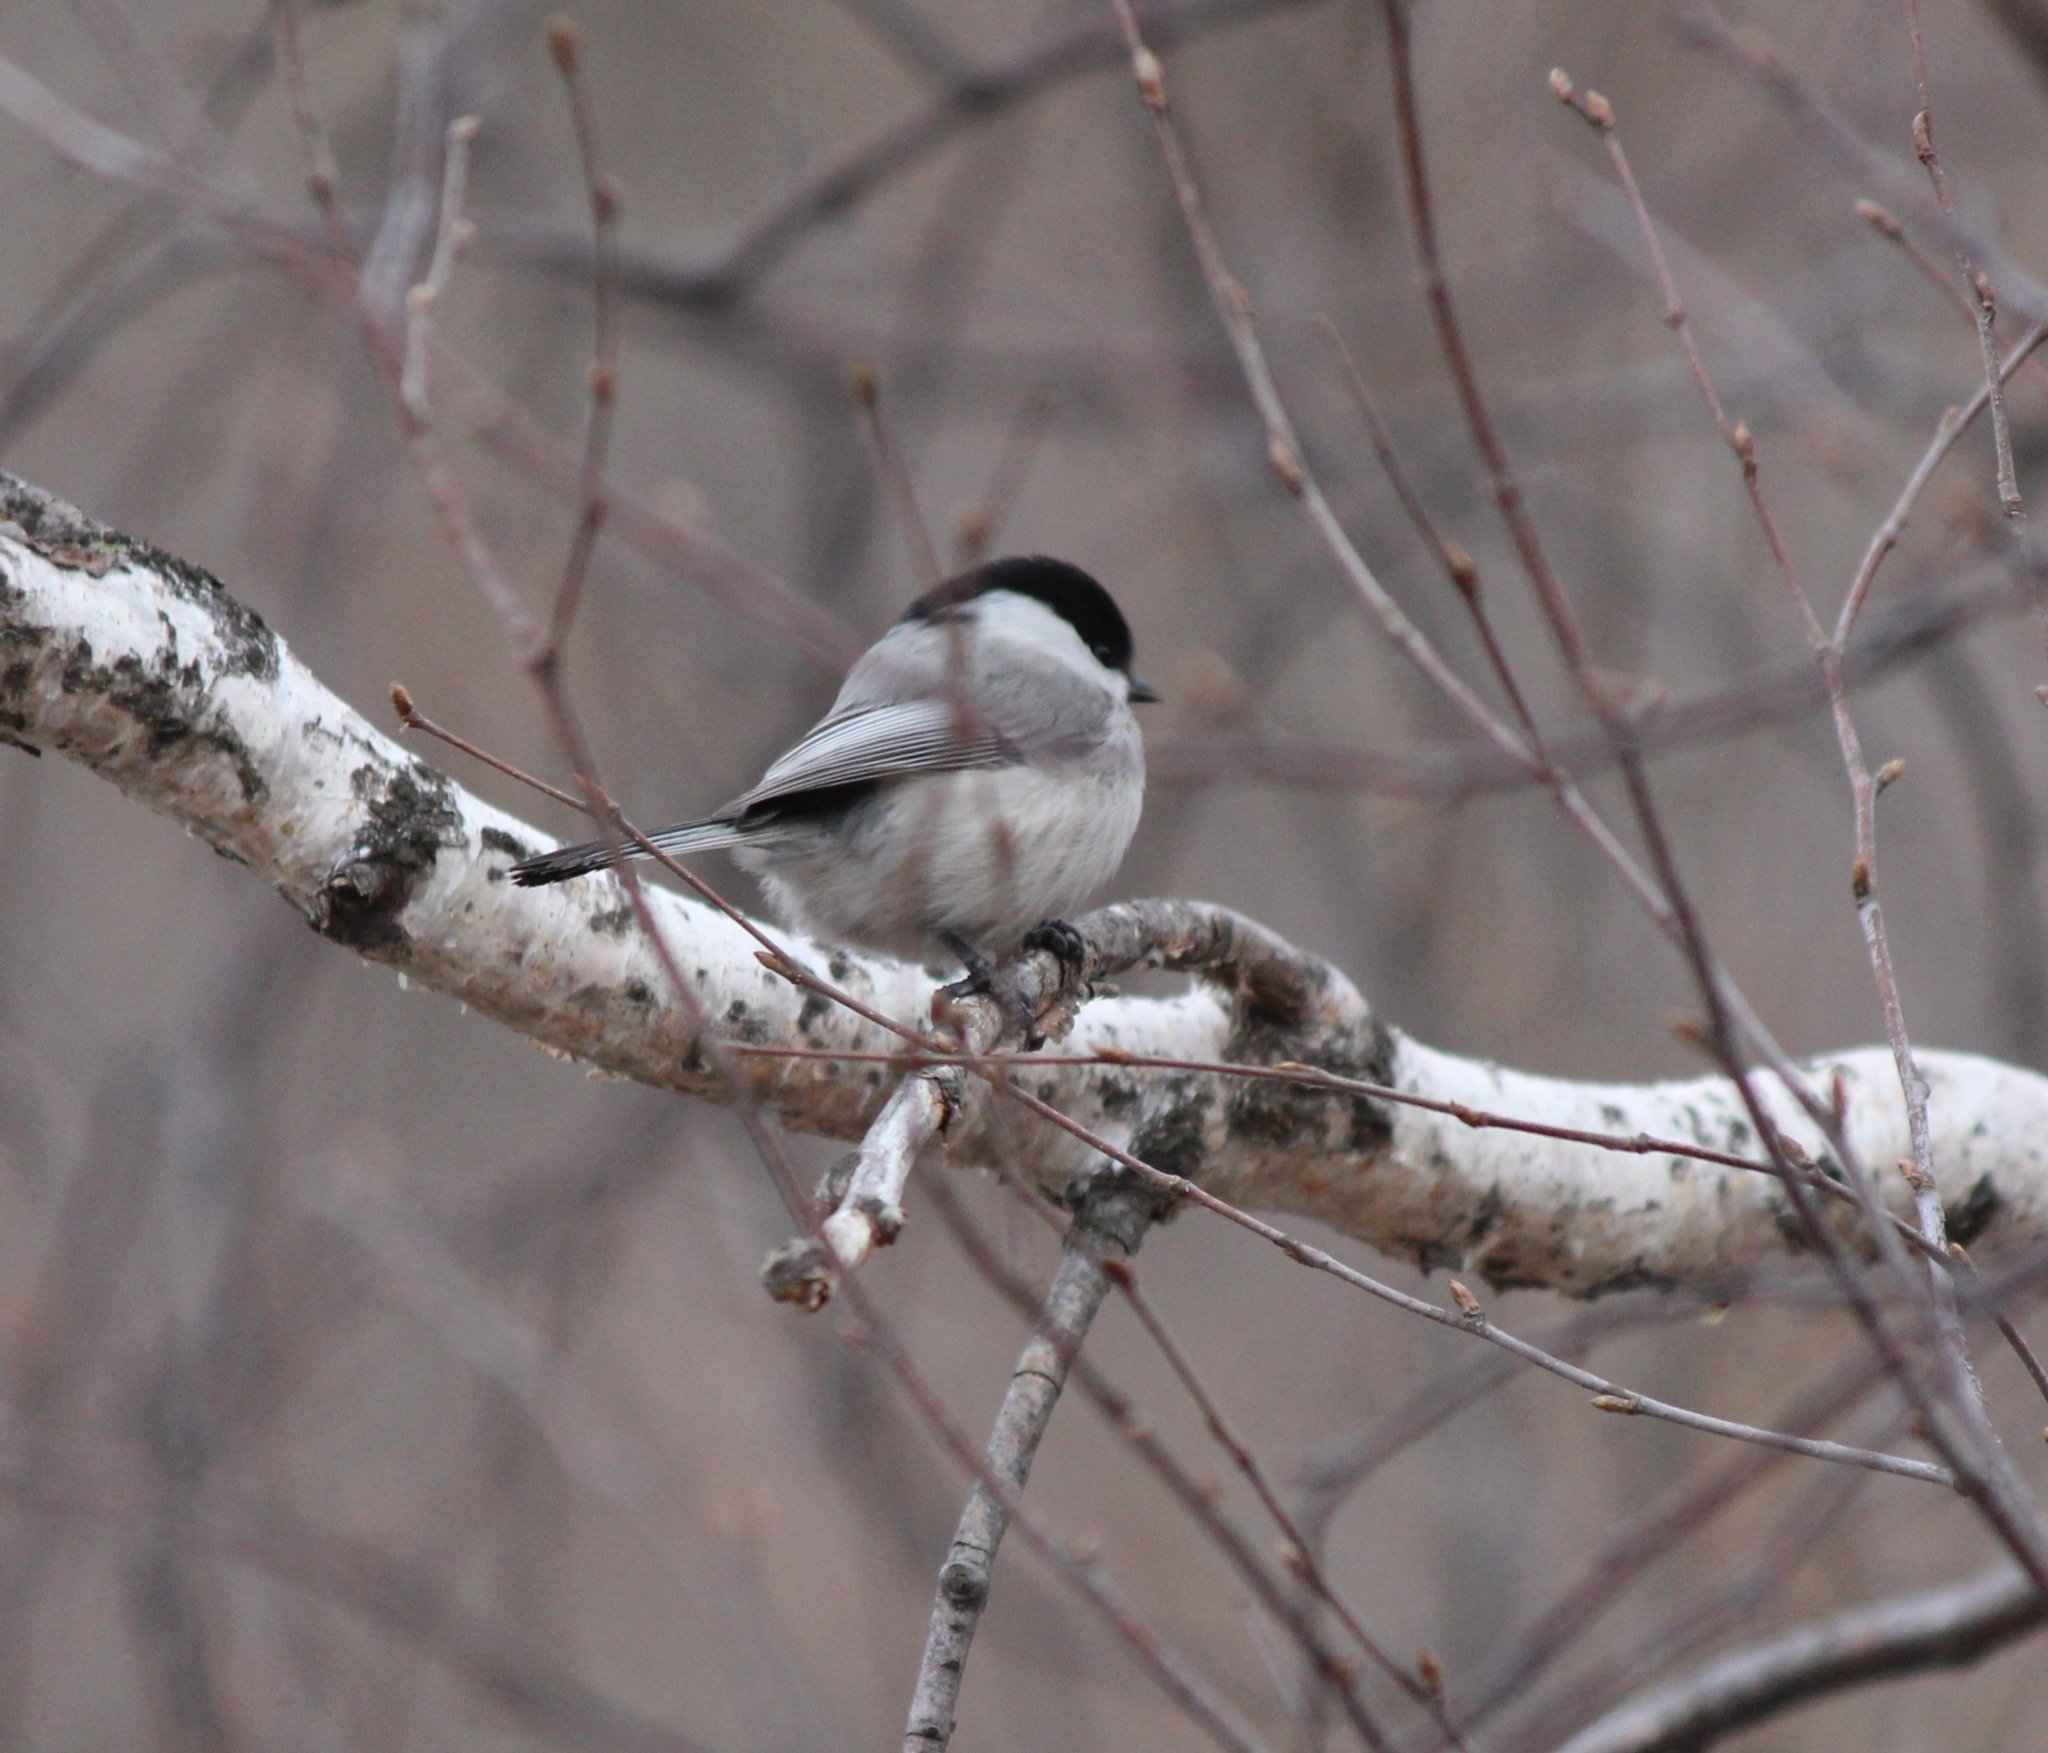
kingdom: Animalia
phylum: Chordata
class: Aves
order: Passeriformes
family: Paridae
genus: Poecile
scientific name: Poecile montanus
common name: Willow tit
